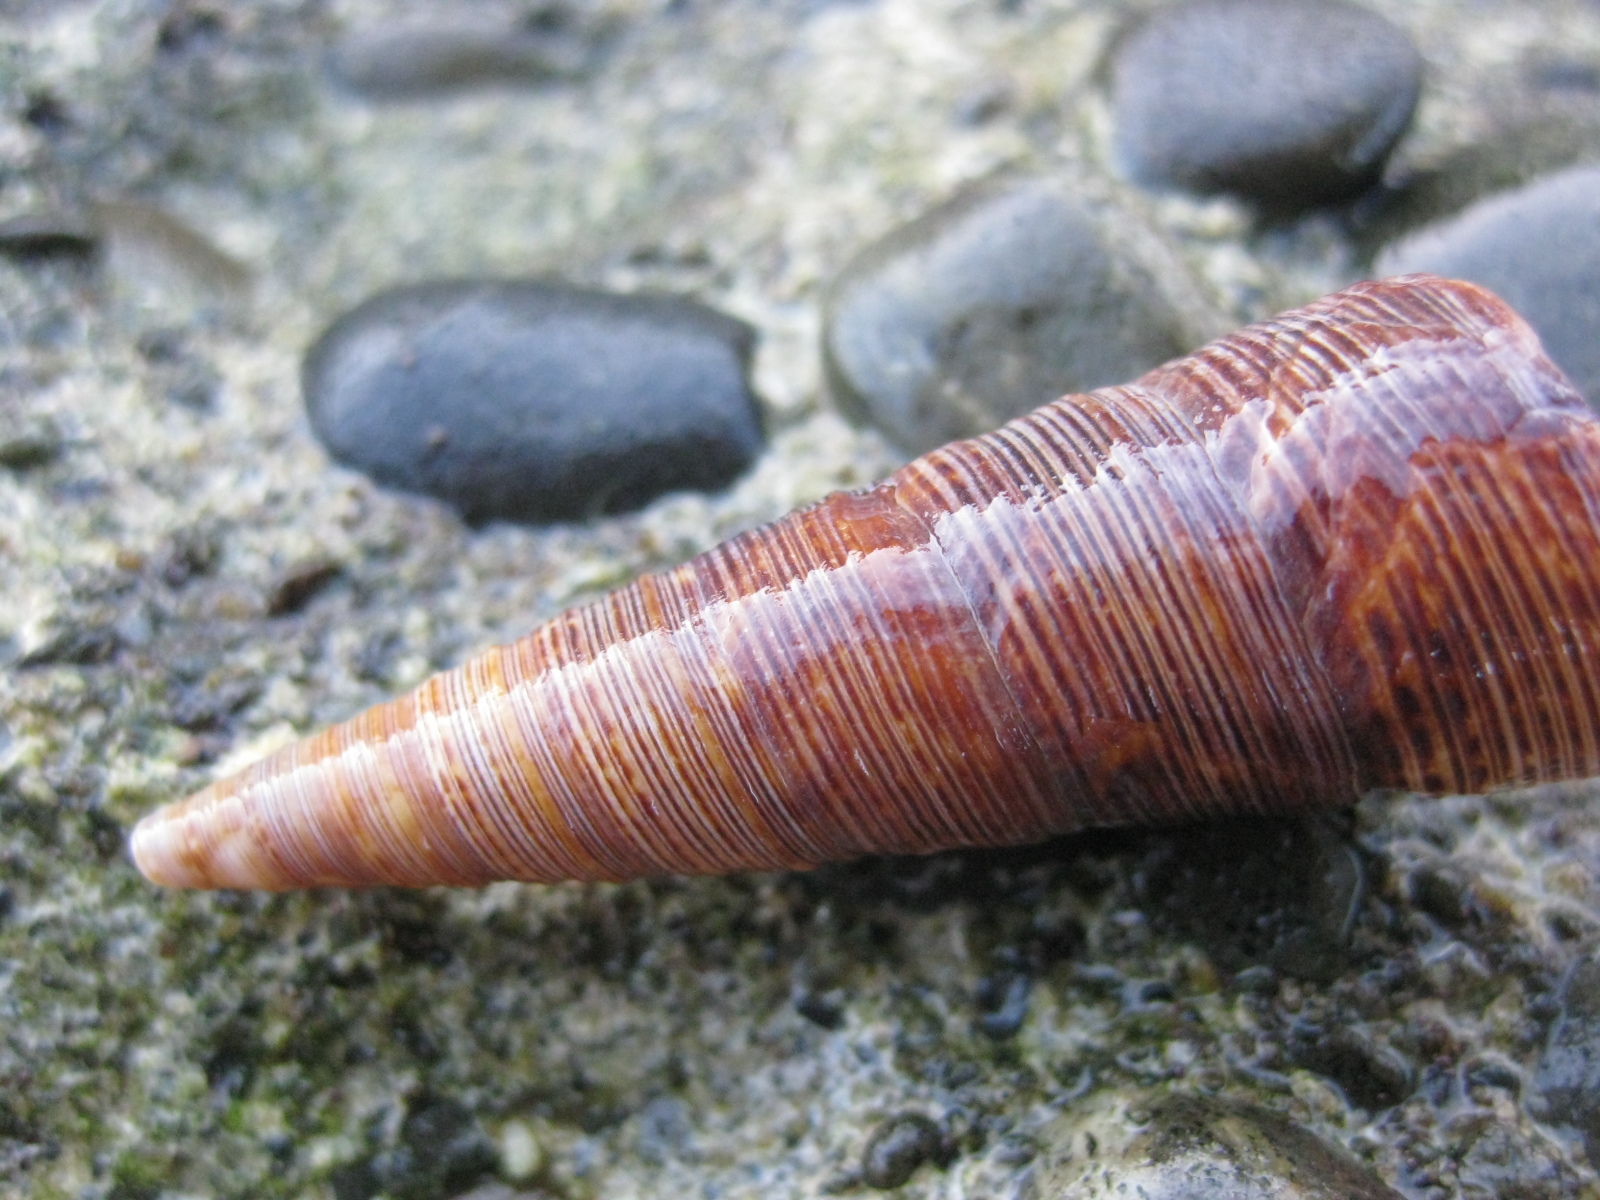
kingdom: Animalia
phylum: Mollusca
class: Gastropoda
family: Turritellidae
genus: Maoricolpus
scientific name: Maoricolpus roseus
